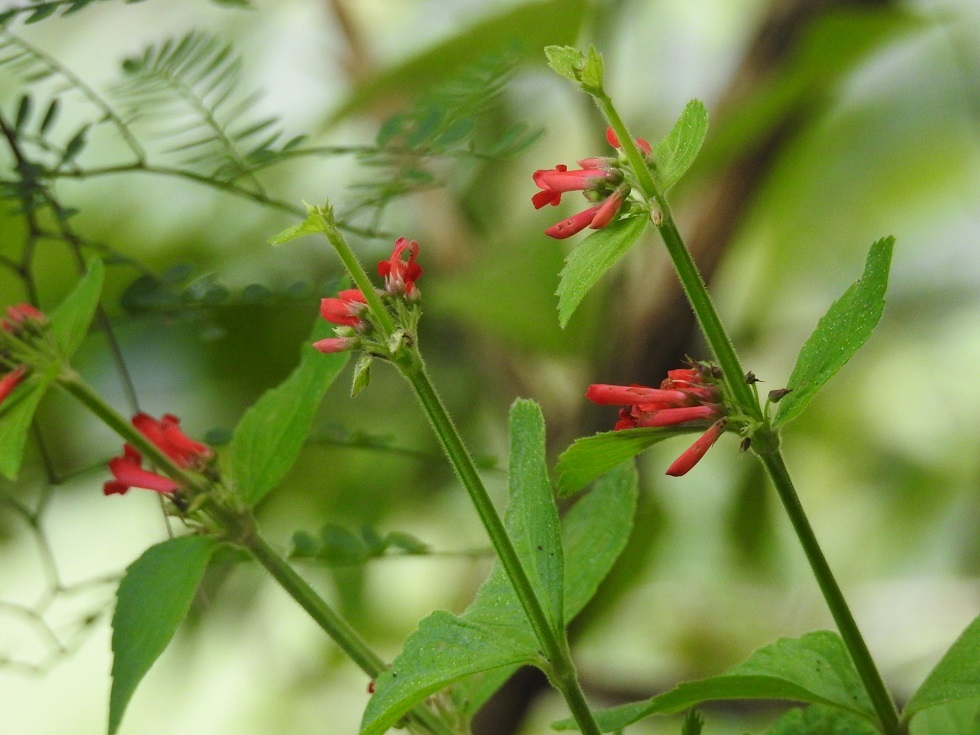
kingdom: Plantae
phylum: Tracheophyta
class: Magnoliopsida
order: Lamiales
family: Plantaginaceae
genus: Russelia
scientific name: Russelia sarmentosa
